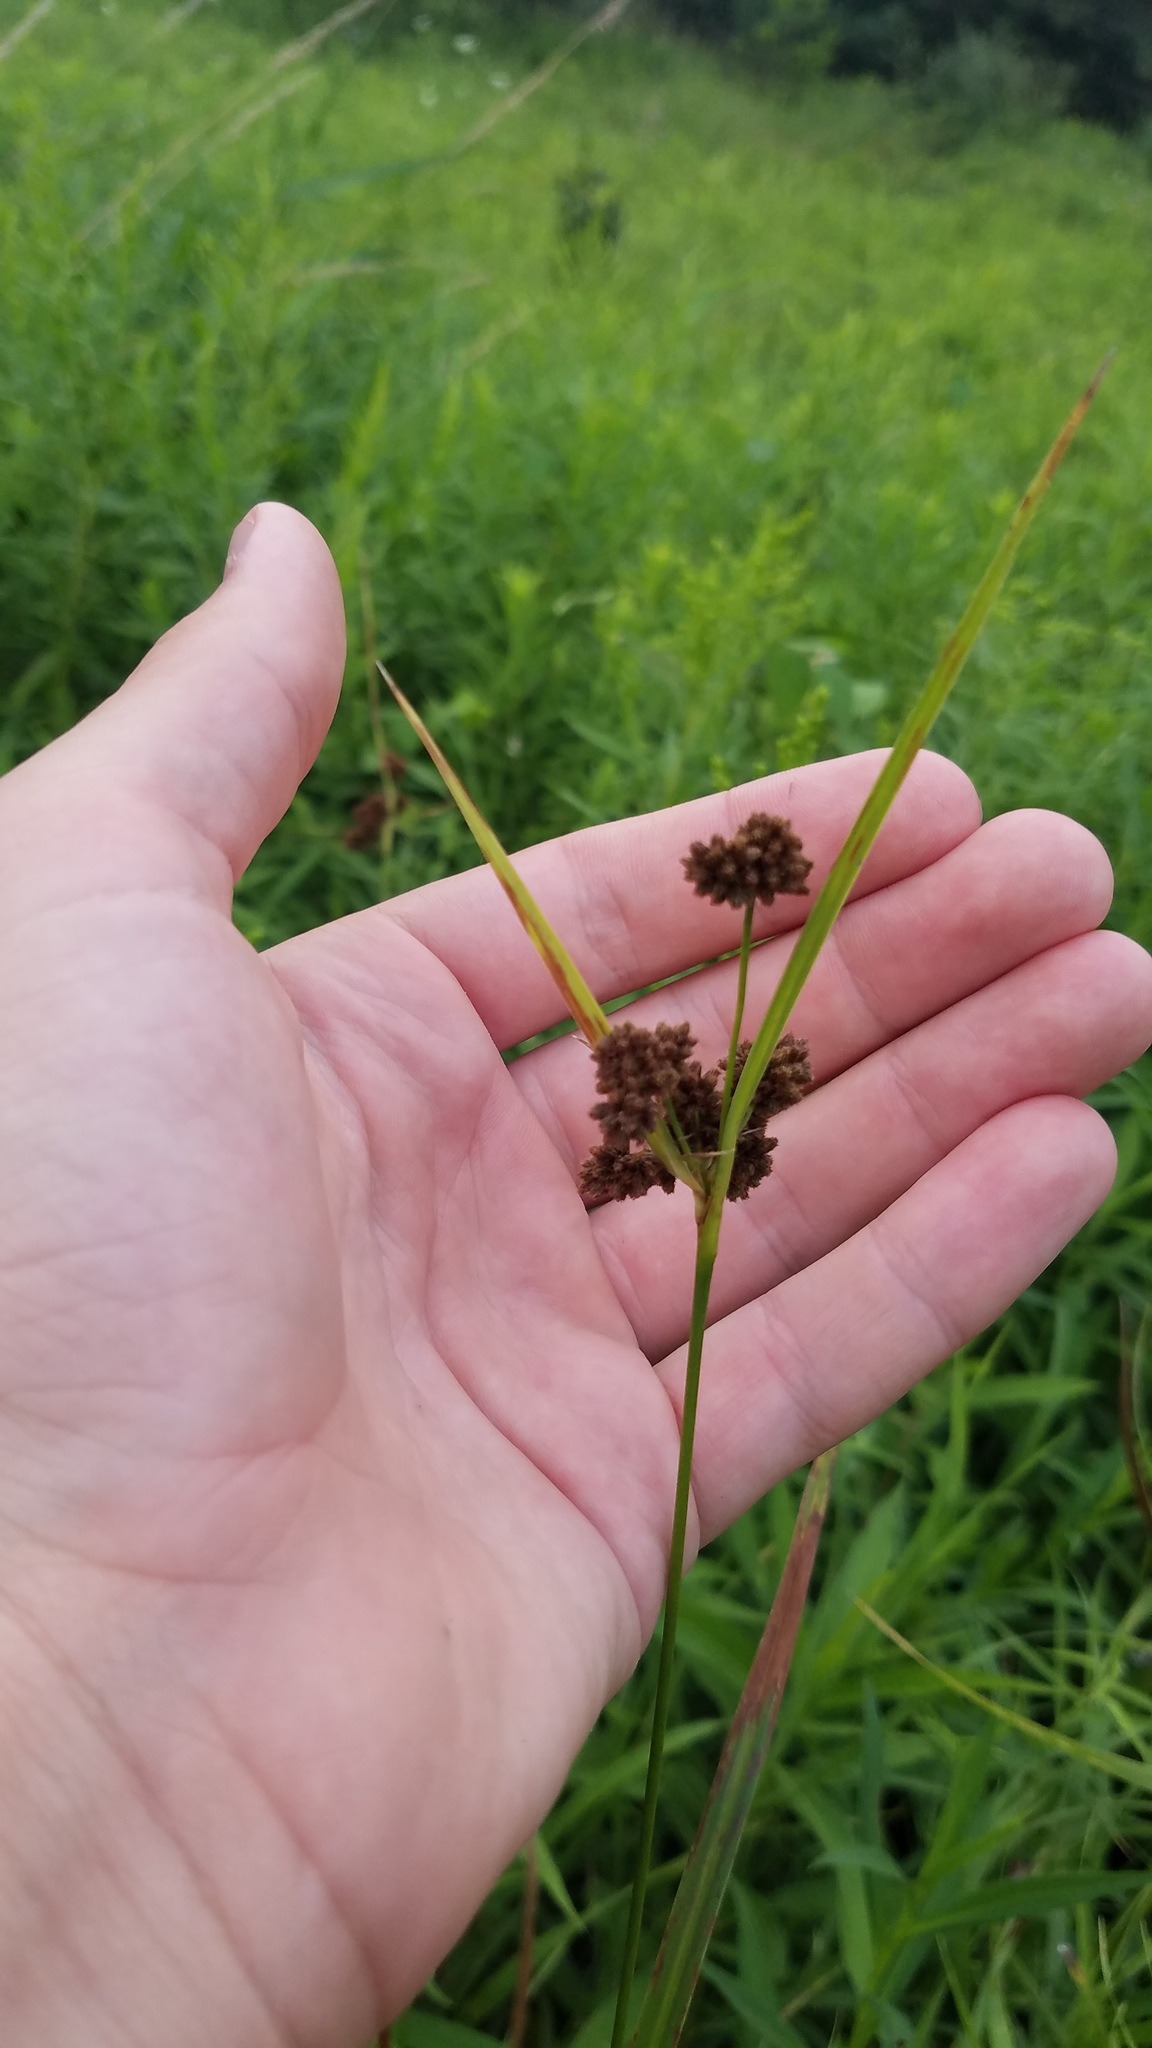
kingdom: Plantae
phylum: Tracheophyta
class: Liliopsida
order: Poales
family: Cyperaceae
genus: Scirpus
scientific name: Scirpus atrovirens
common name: Black bulrush
